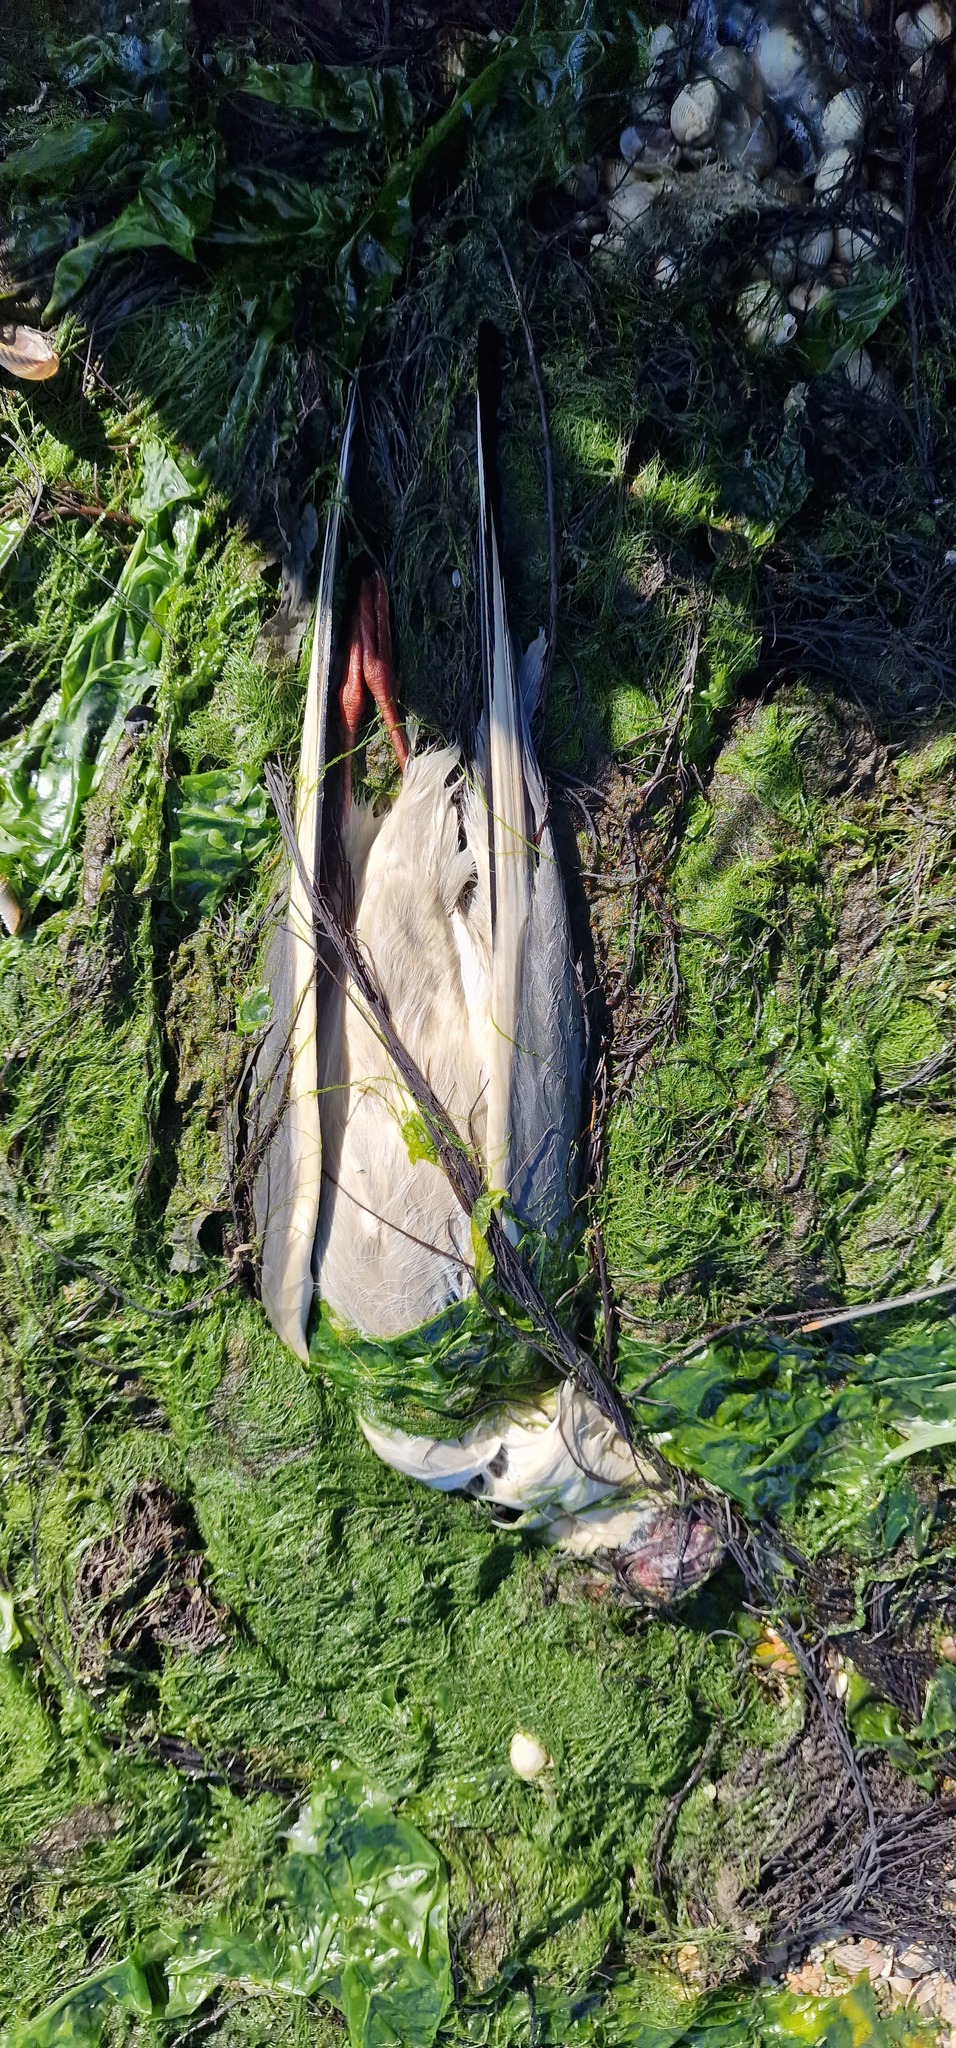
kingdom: Animalia
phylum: Chordata
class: Aves
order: Charadriiformes
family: Laridae
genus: Chroicocephalus
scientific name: Chroicocephalus ridibundus
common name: Black-headed gull
